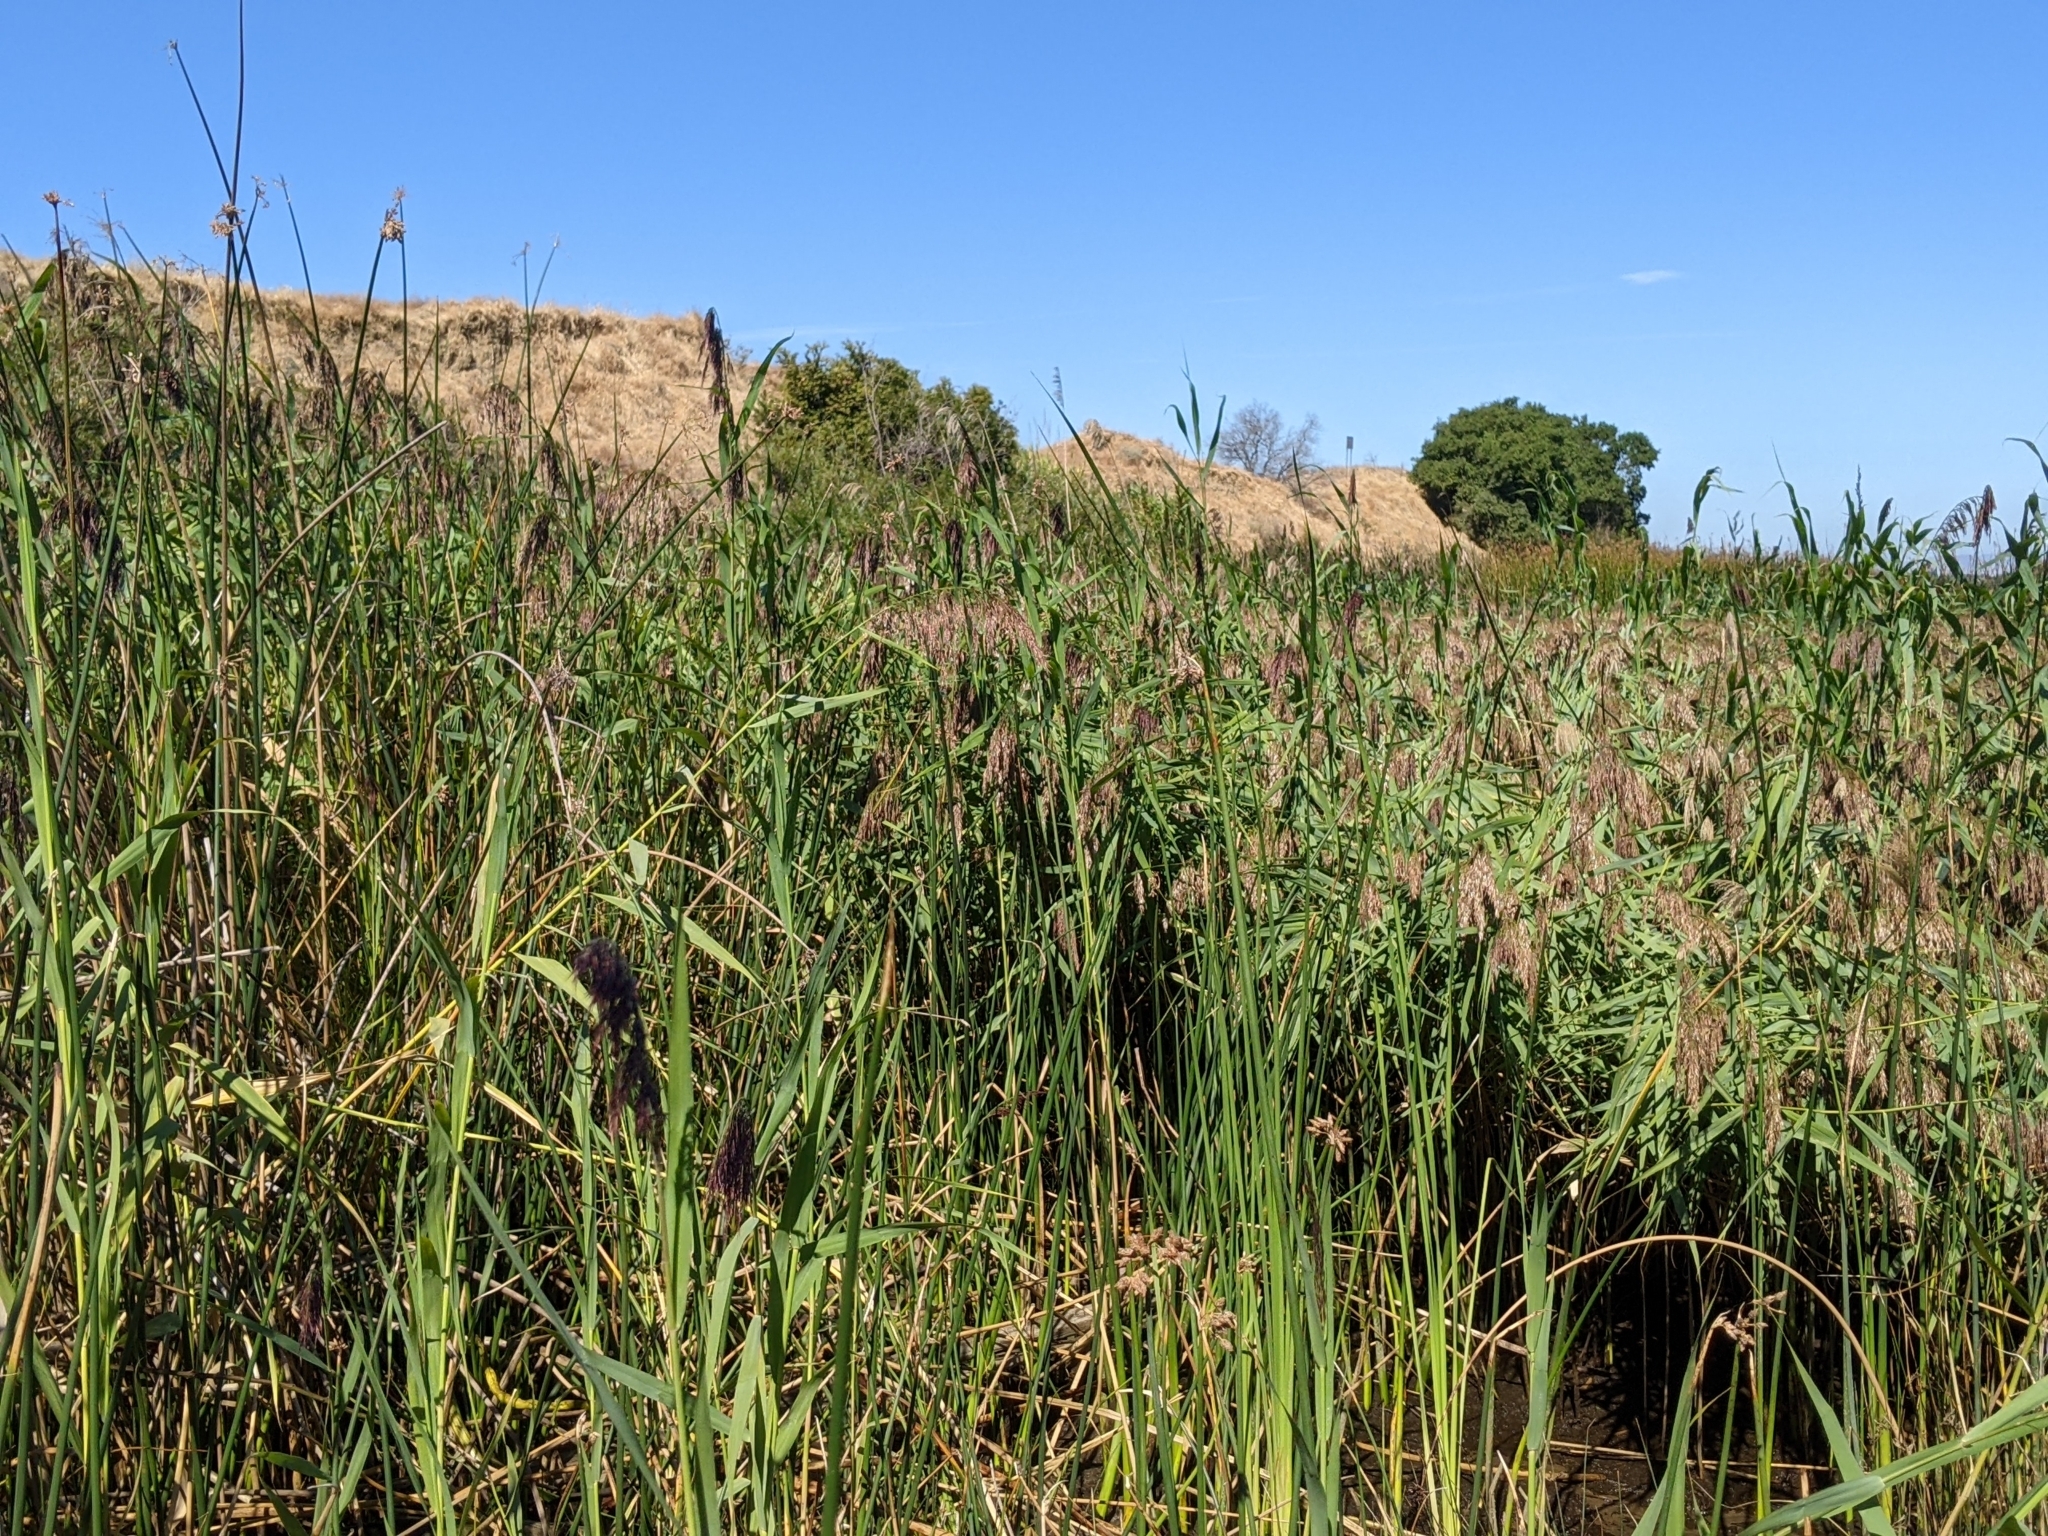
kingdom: Plantae
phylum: Tracheophyta
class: Liliopsida
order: Poales
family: Poaceae
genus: Phragmites
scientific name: Phragmites australis
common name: Common reed
